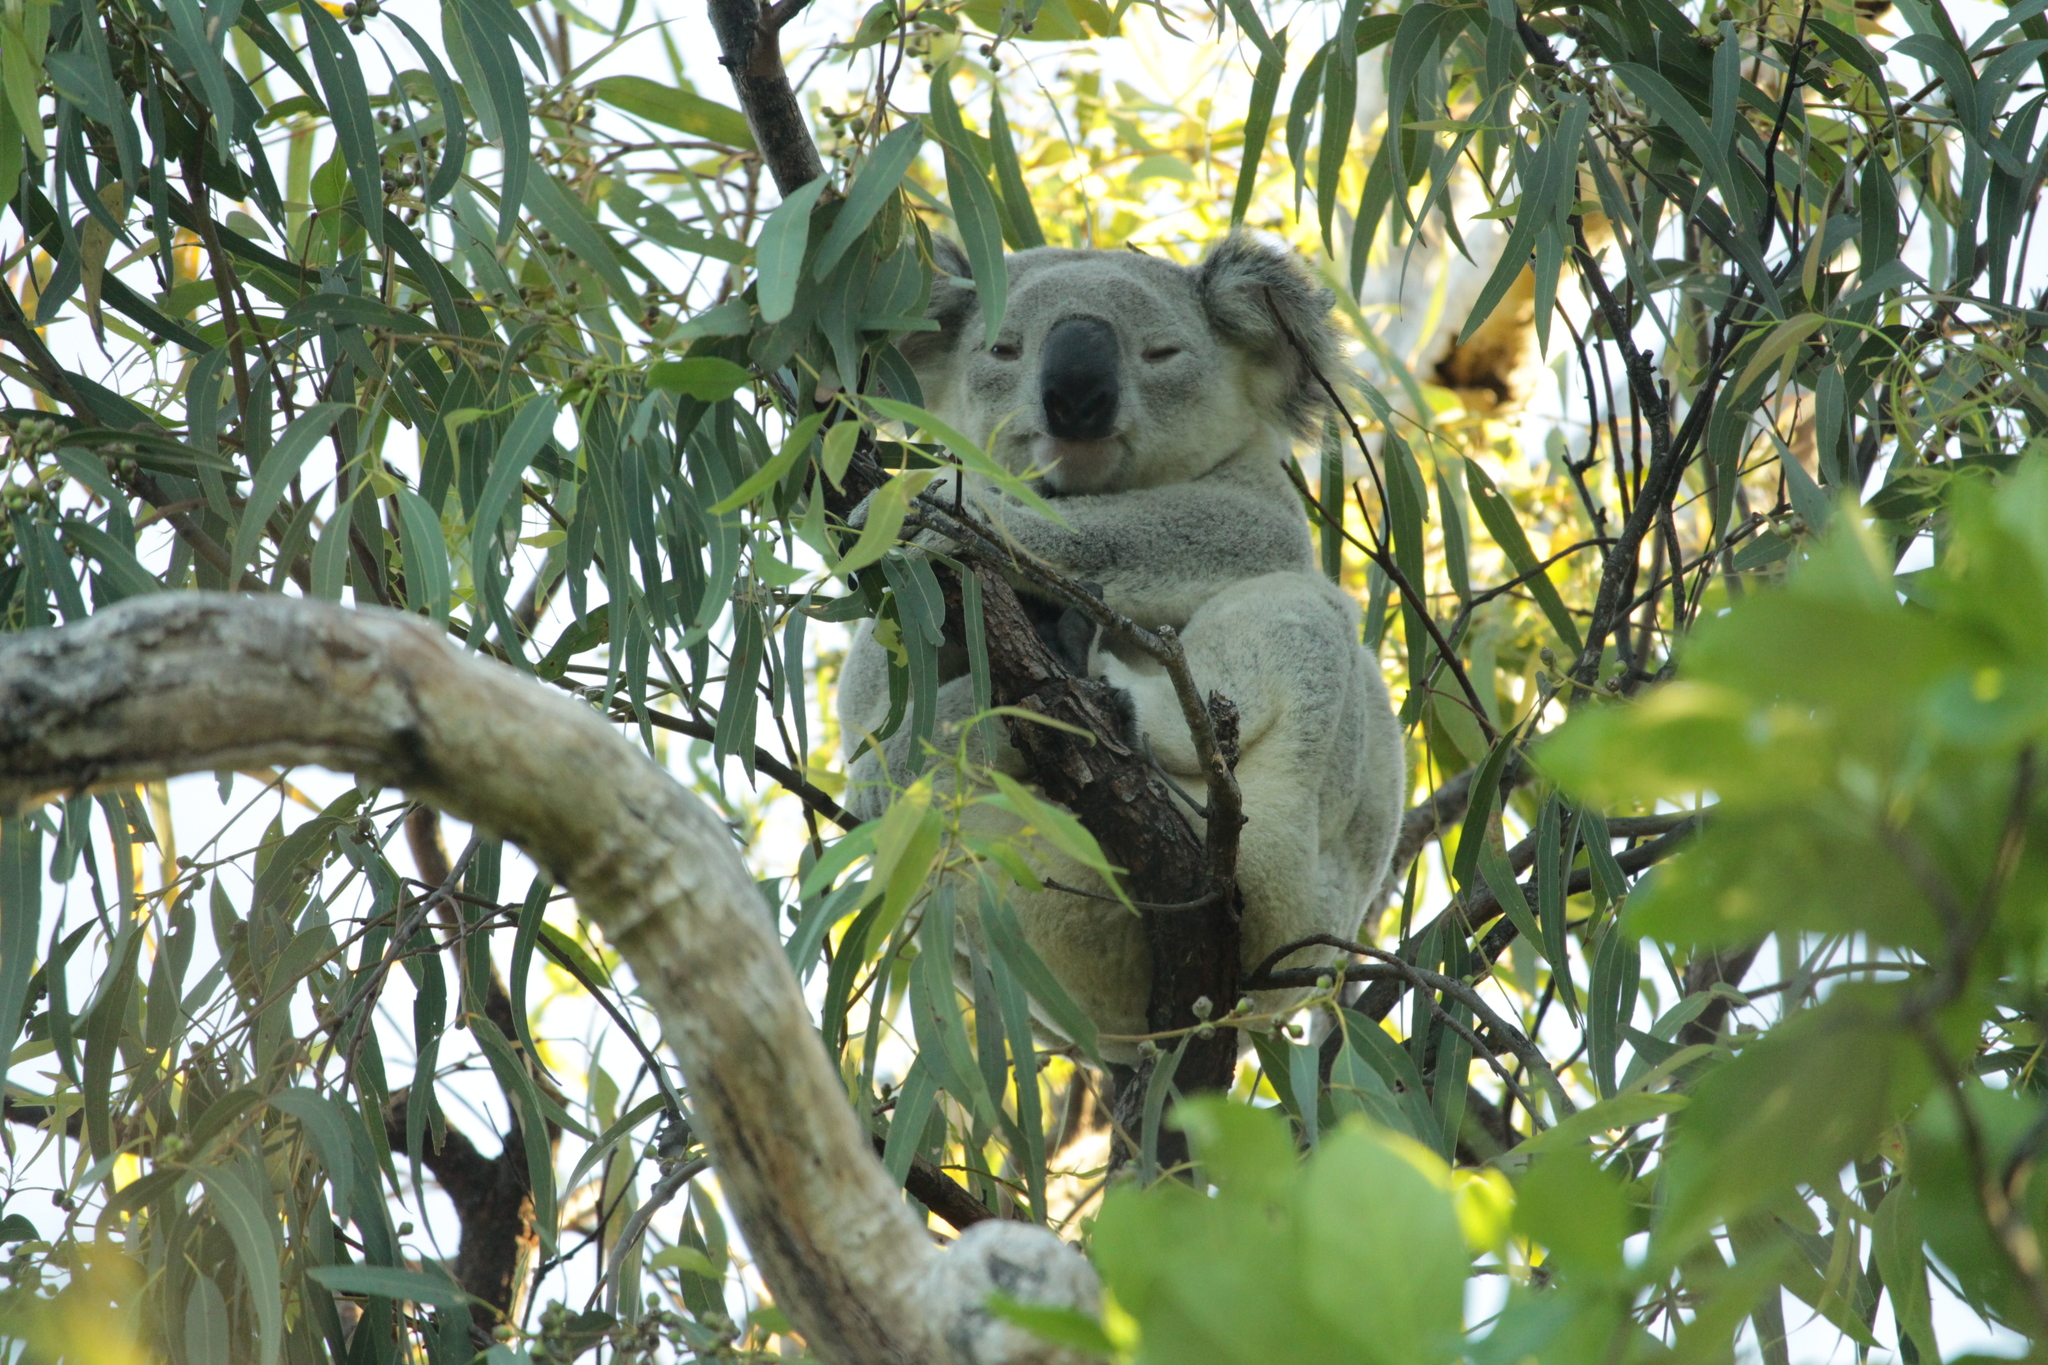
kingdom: Animalia
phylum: Chordata
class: Mammalia
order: Diprotodontia
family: Phascolarctidae
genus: Phascolarctos
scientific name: Phascolarctos cinereus
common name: Koala
